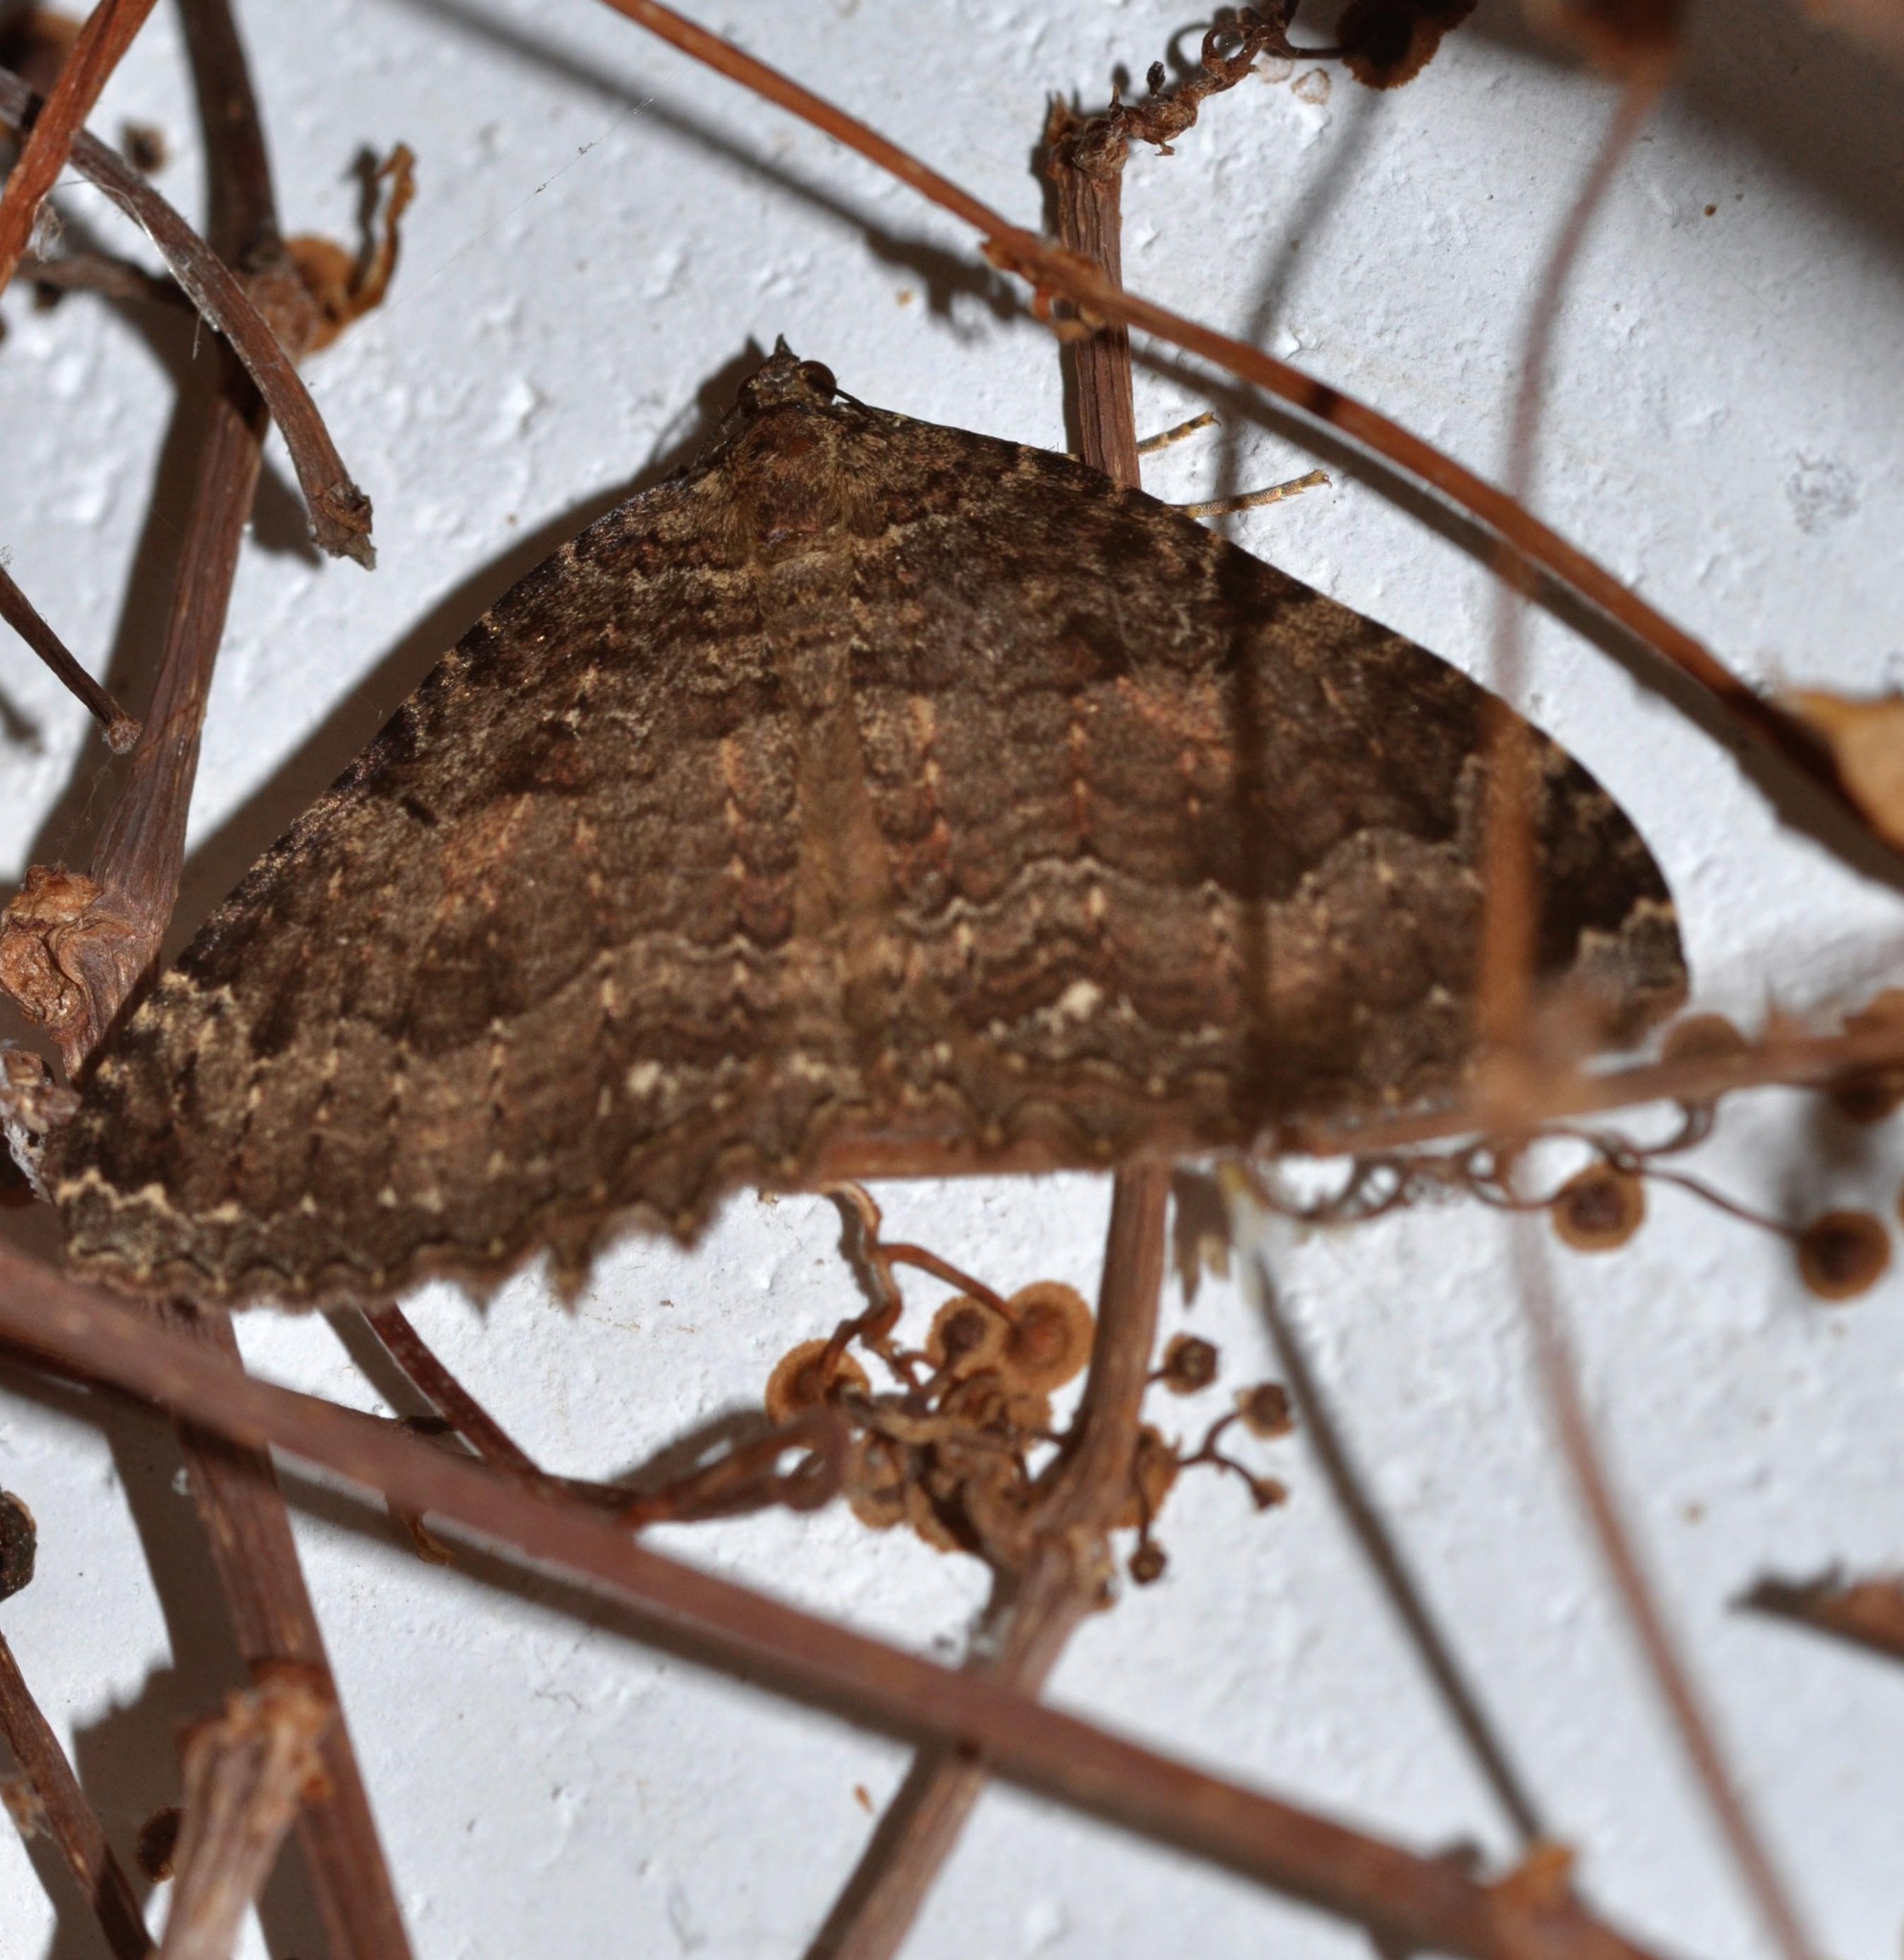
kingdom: Animalia
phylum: Arthropoda
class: Insecta
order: Lepidoptera
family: Geometridae
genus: Triphosa
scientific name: Triphosa dubitata
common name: Tissue
